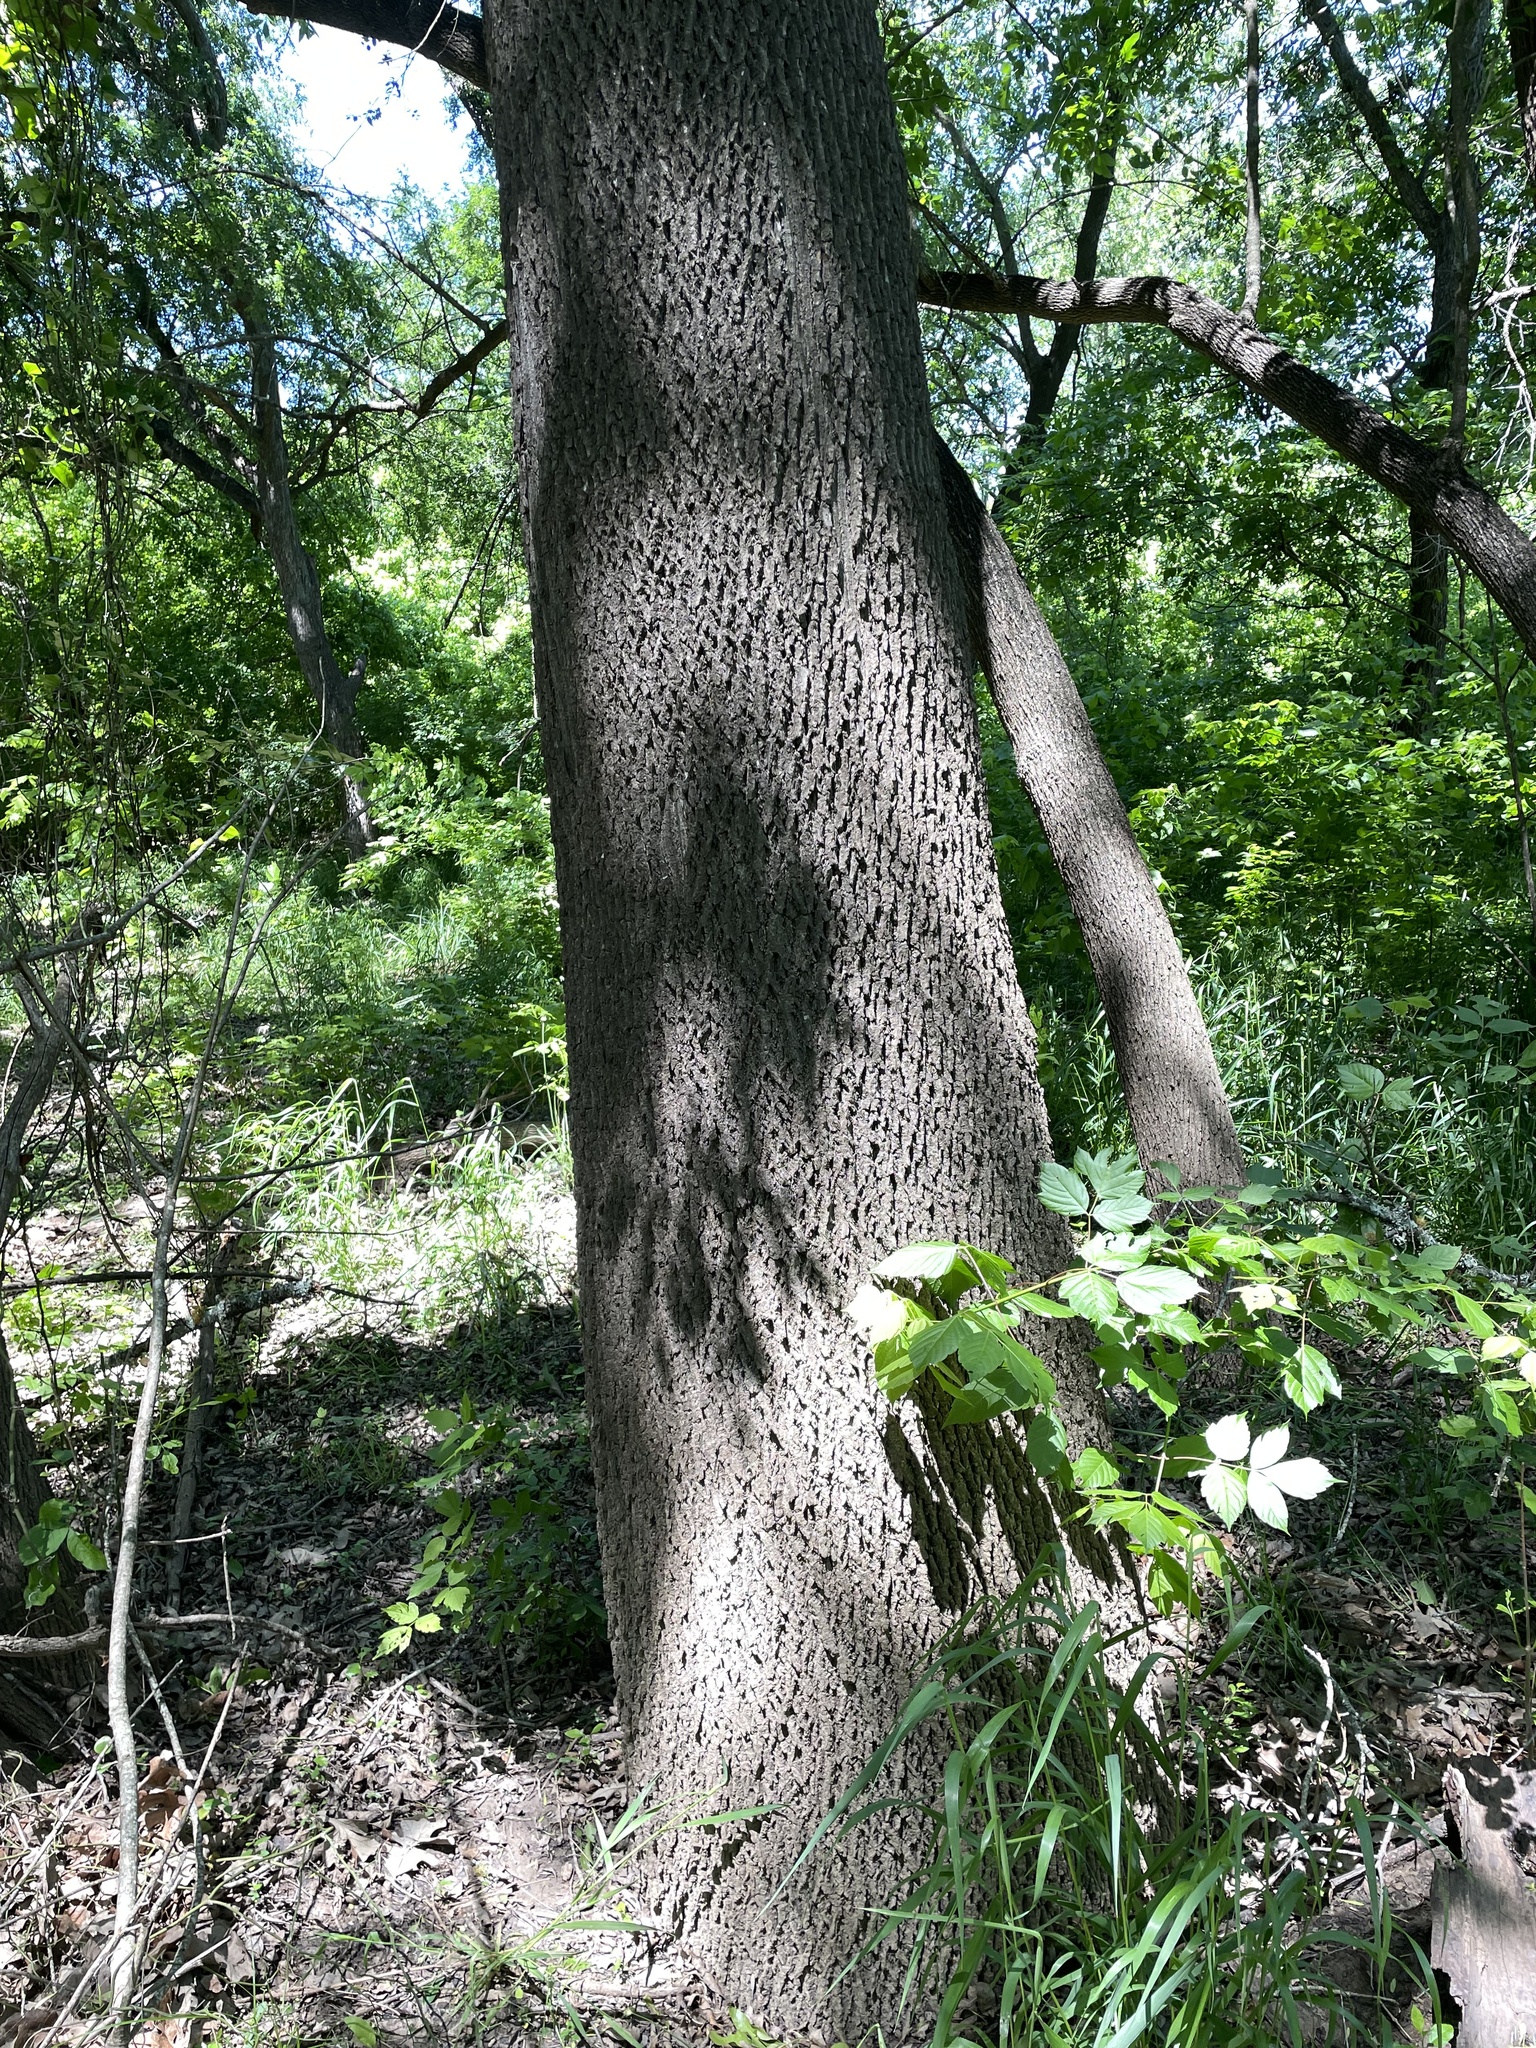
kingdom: Plantae
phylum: Tracheophyta
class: Magnoliopsida
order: Lamiales
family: Oleaceae
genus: Fraxinus
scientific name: Fraxinus pennsylvanica
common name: Green ash
